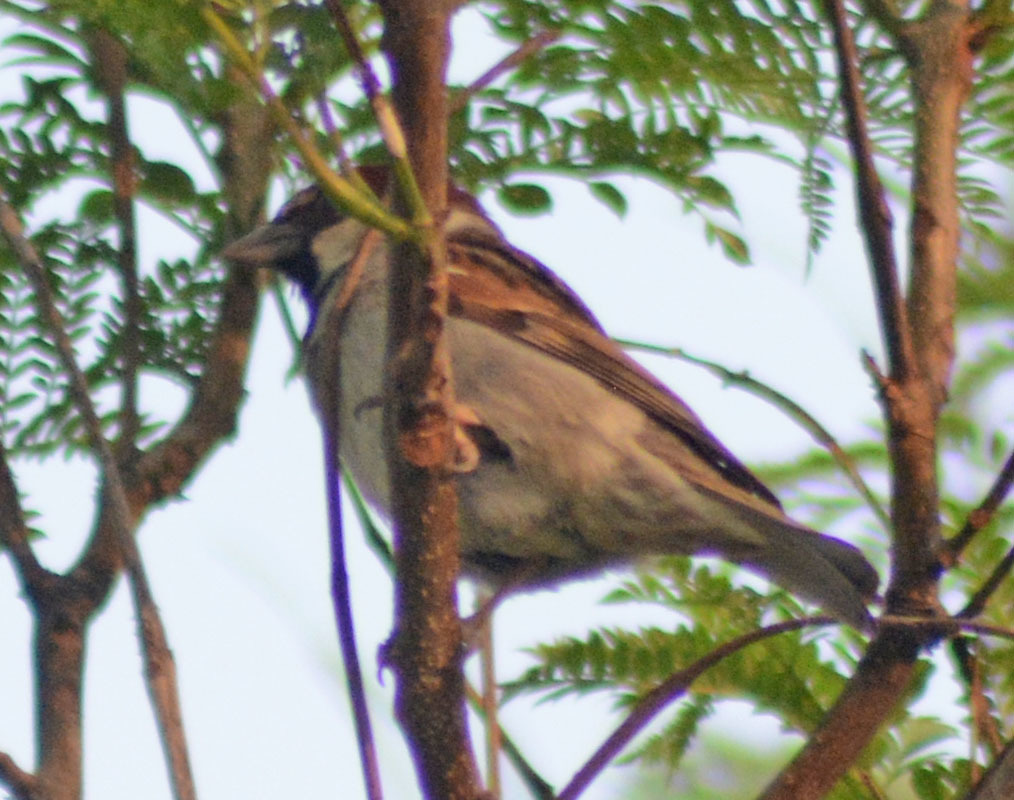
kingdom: Animalia
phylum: Chordata
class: Aves
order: Passeriformes
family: Passeridae
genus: Passer
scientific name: Passer domesticus
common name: House sparrow
